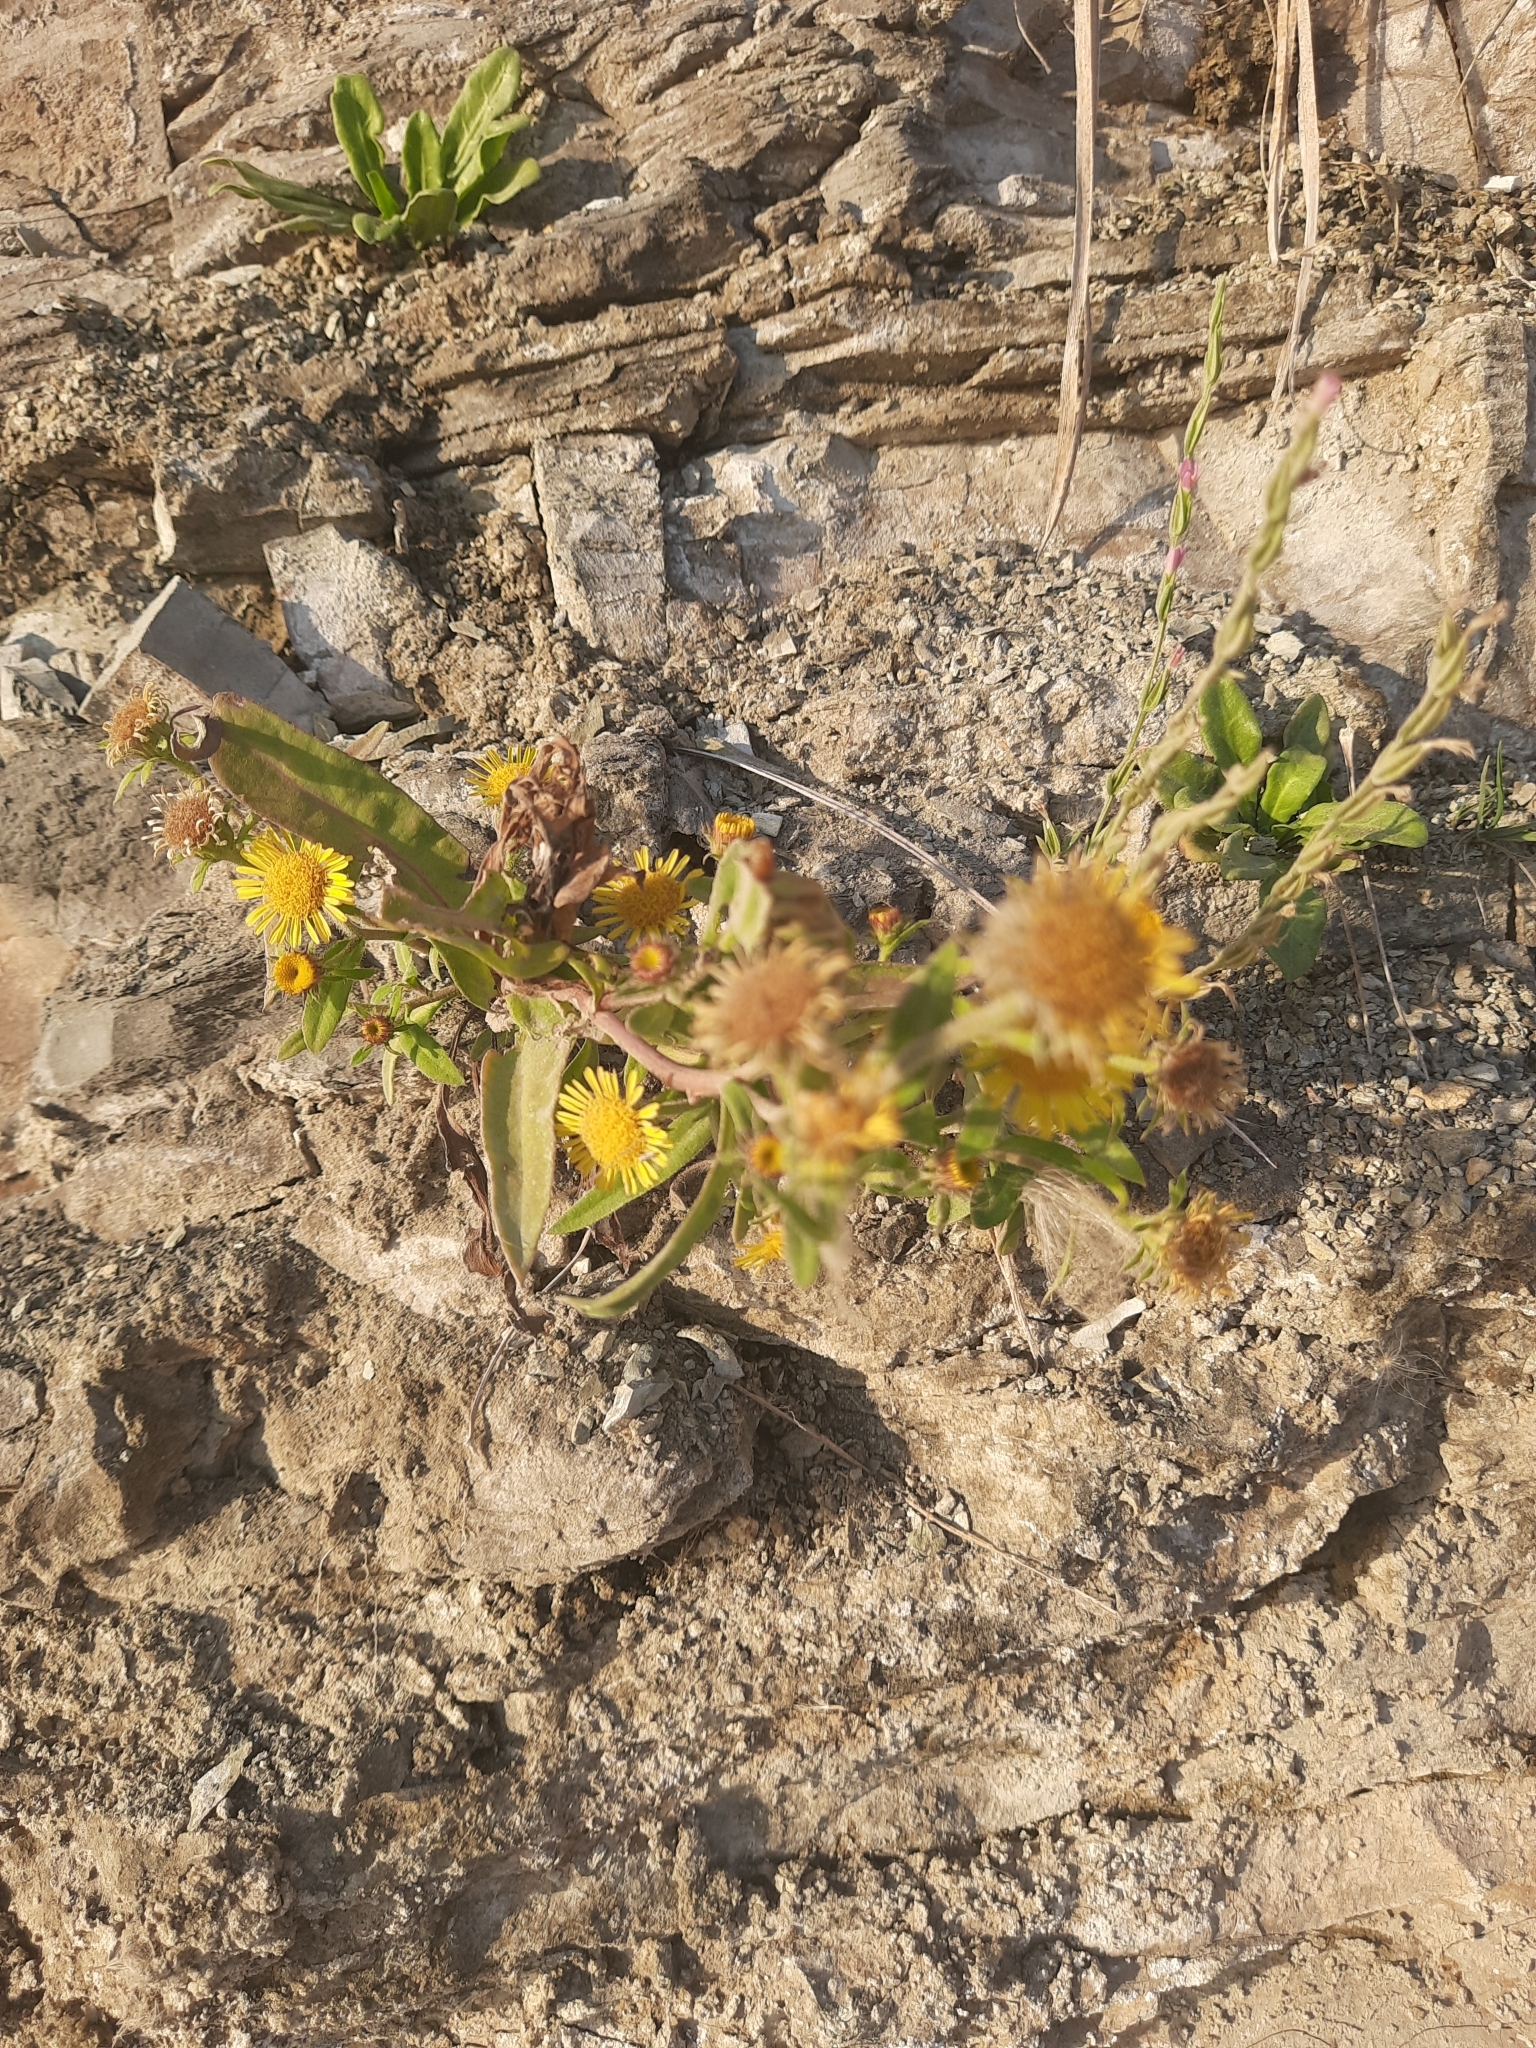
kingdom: Plantae
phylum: Tracheophyta
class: Magnoliopsida
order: Asterales
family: Asteraceae
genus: Pentanema
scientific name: Pentanema britannicum
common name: British elecampane
